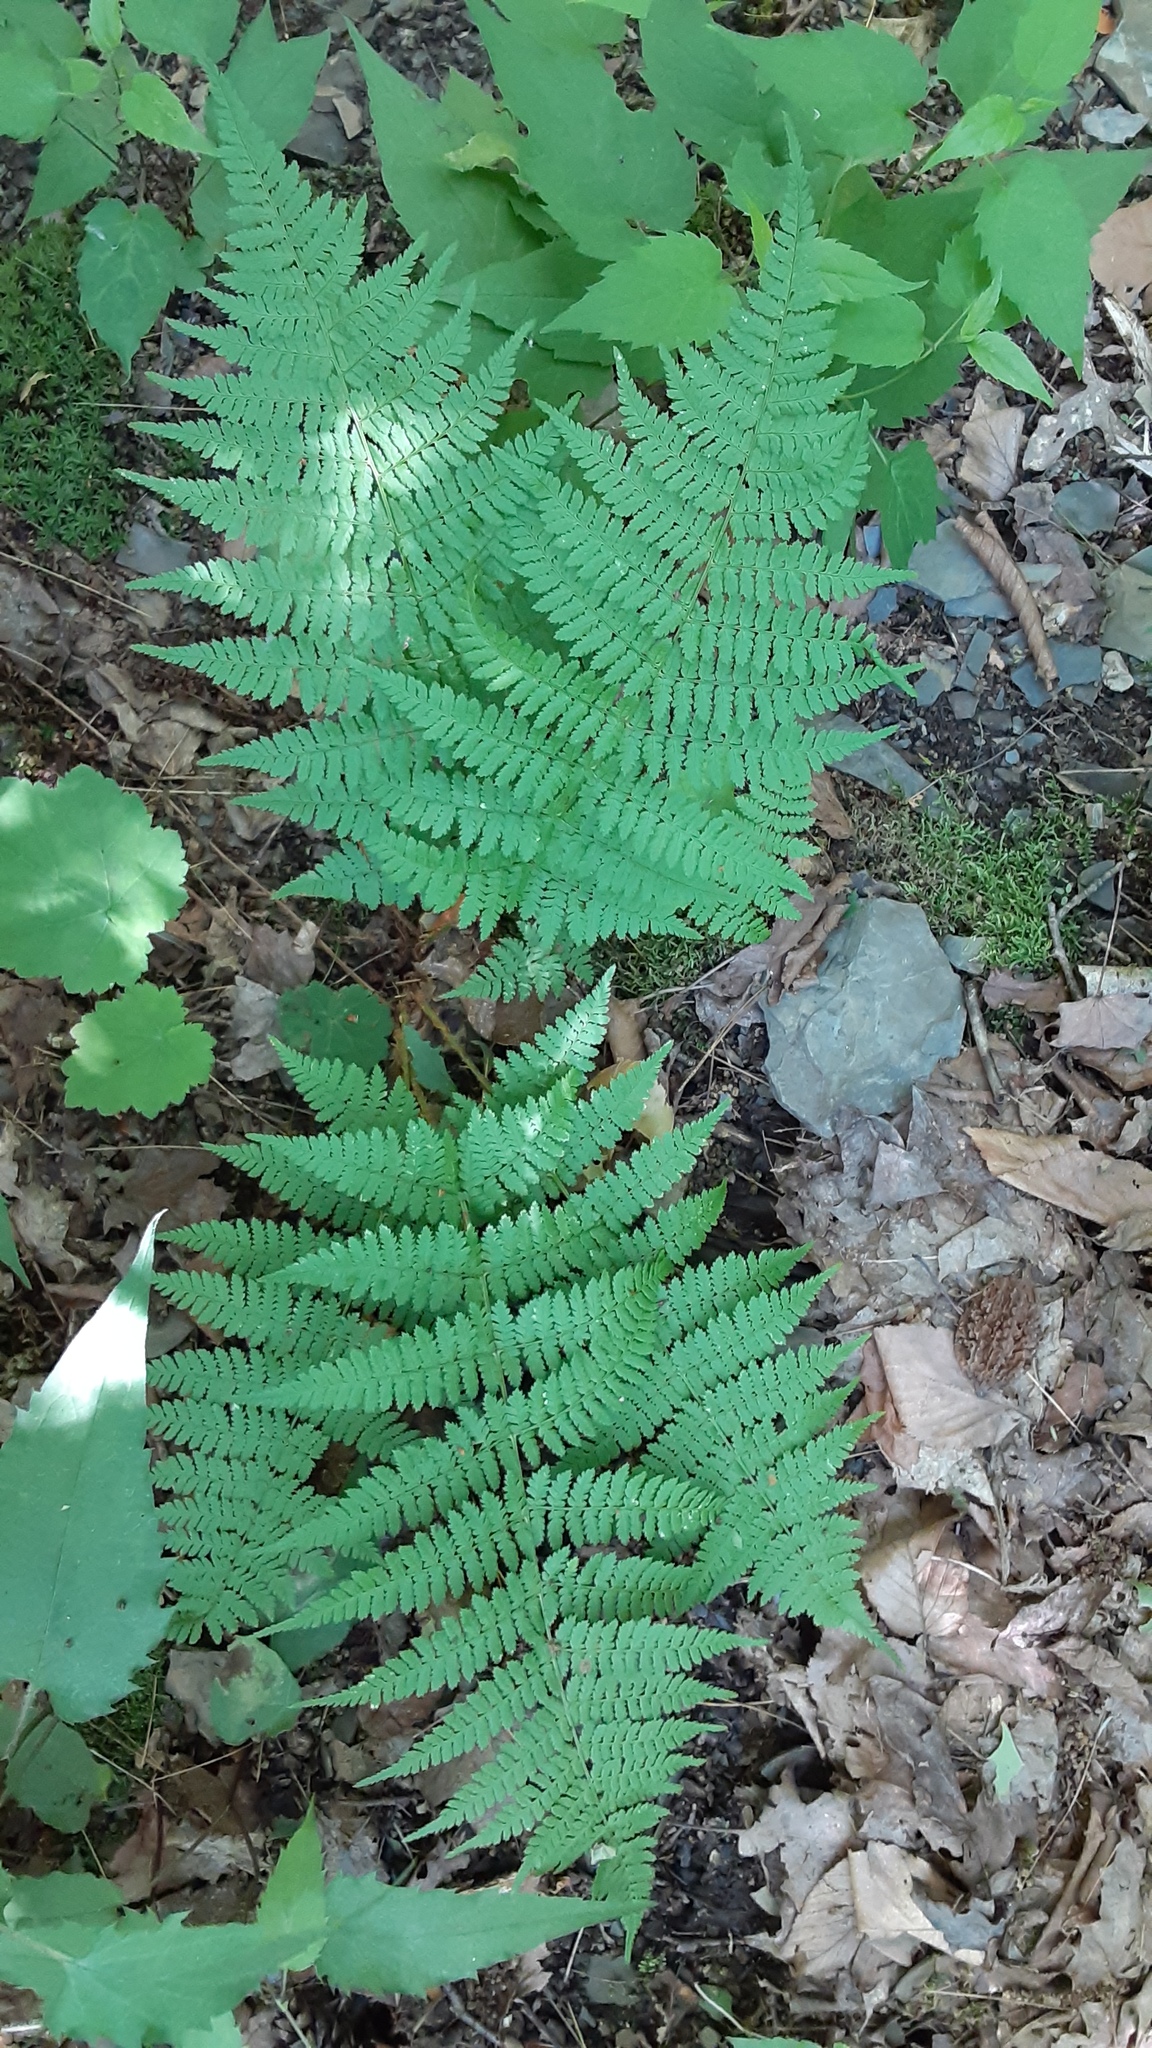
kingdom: Plantae
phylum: Tracheophyta
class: Polypodiopsida
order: Polypodiales
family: Dryopteridaceae
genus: Dryopteris
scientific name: Dryopteris intermedia
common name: Evergreen wood fern
